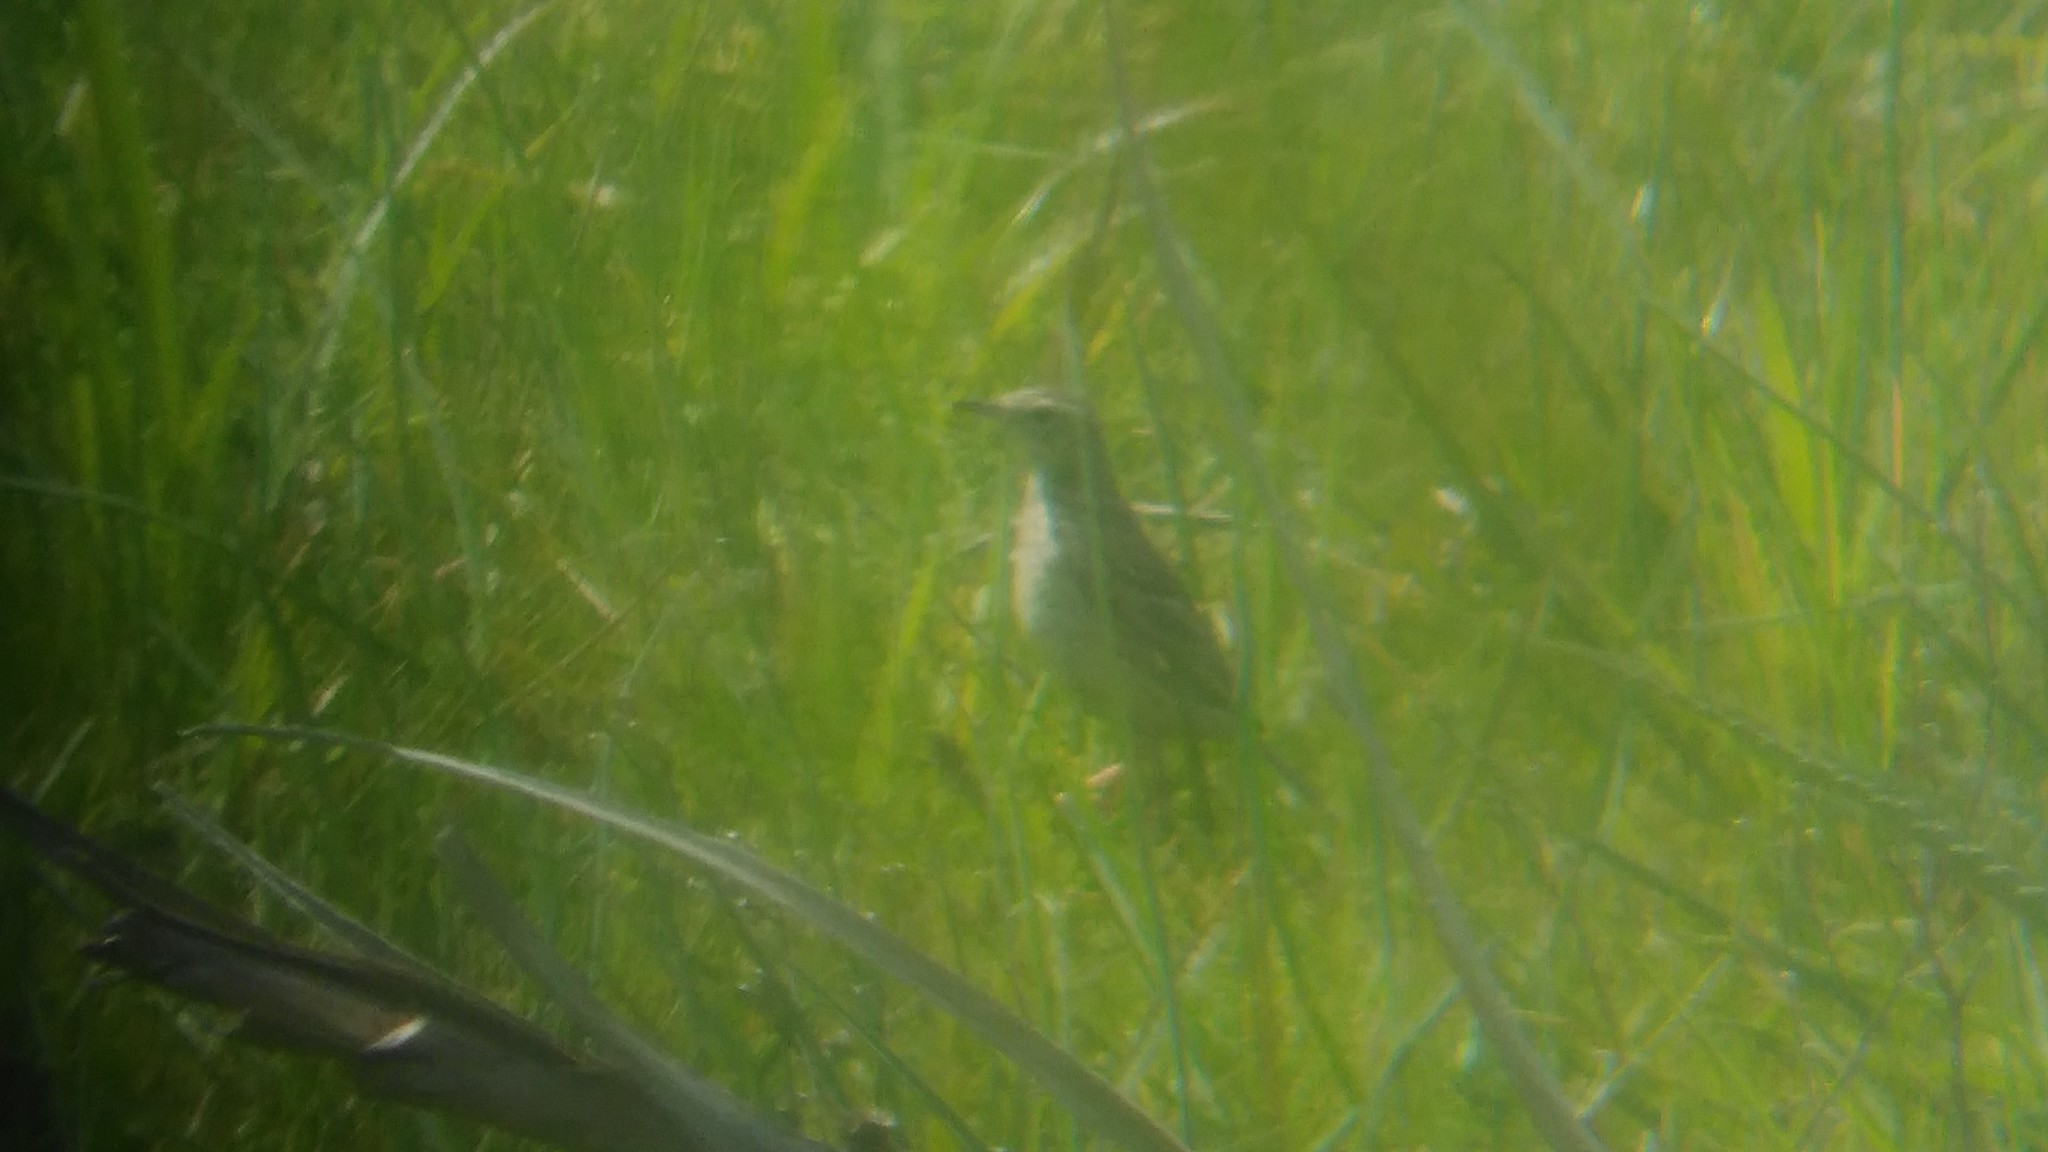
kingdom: Animalia
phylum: Chordata
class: Aves
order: Passeriformes
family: Motacillidae
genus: Anthus
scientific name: Anthus hellmayri
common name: Hellmayr's pipit
